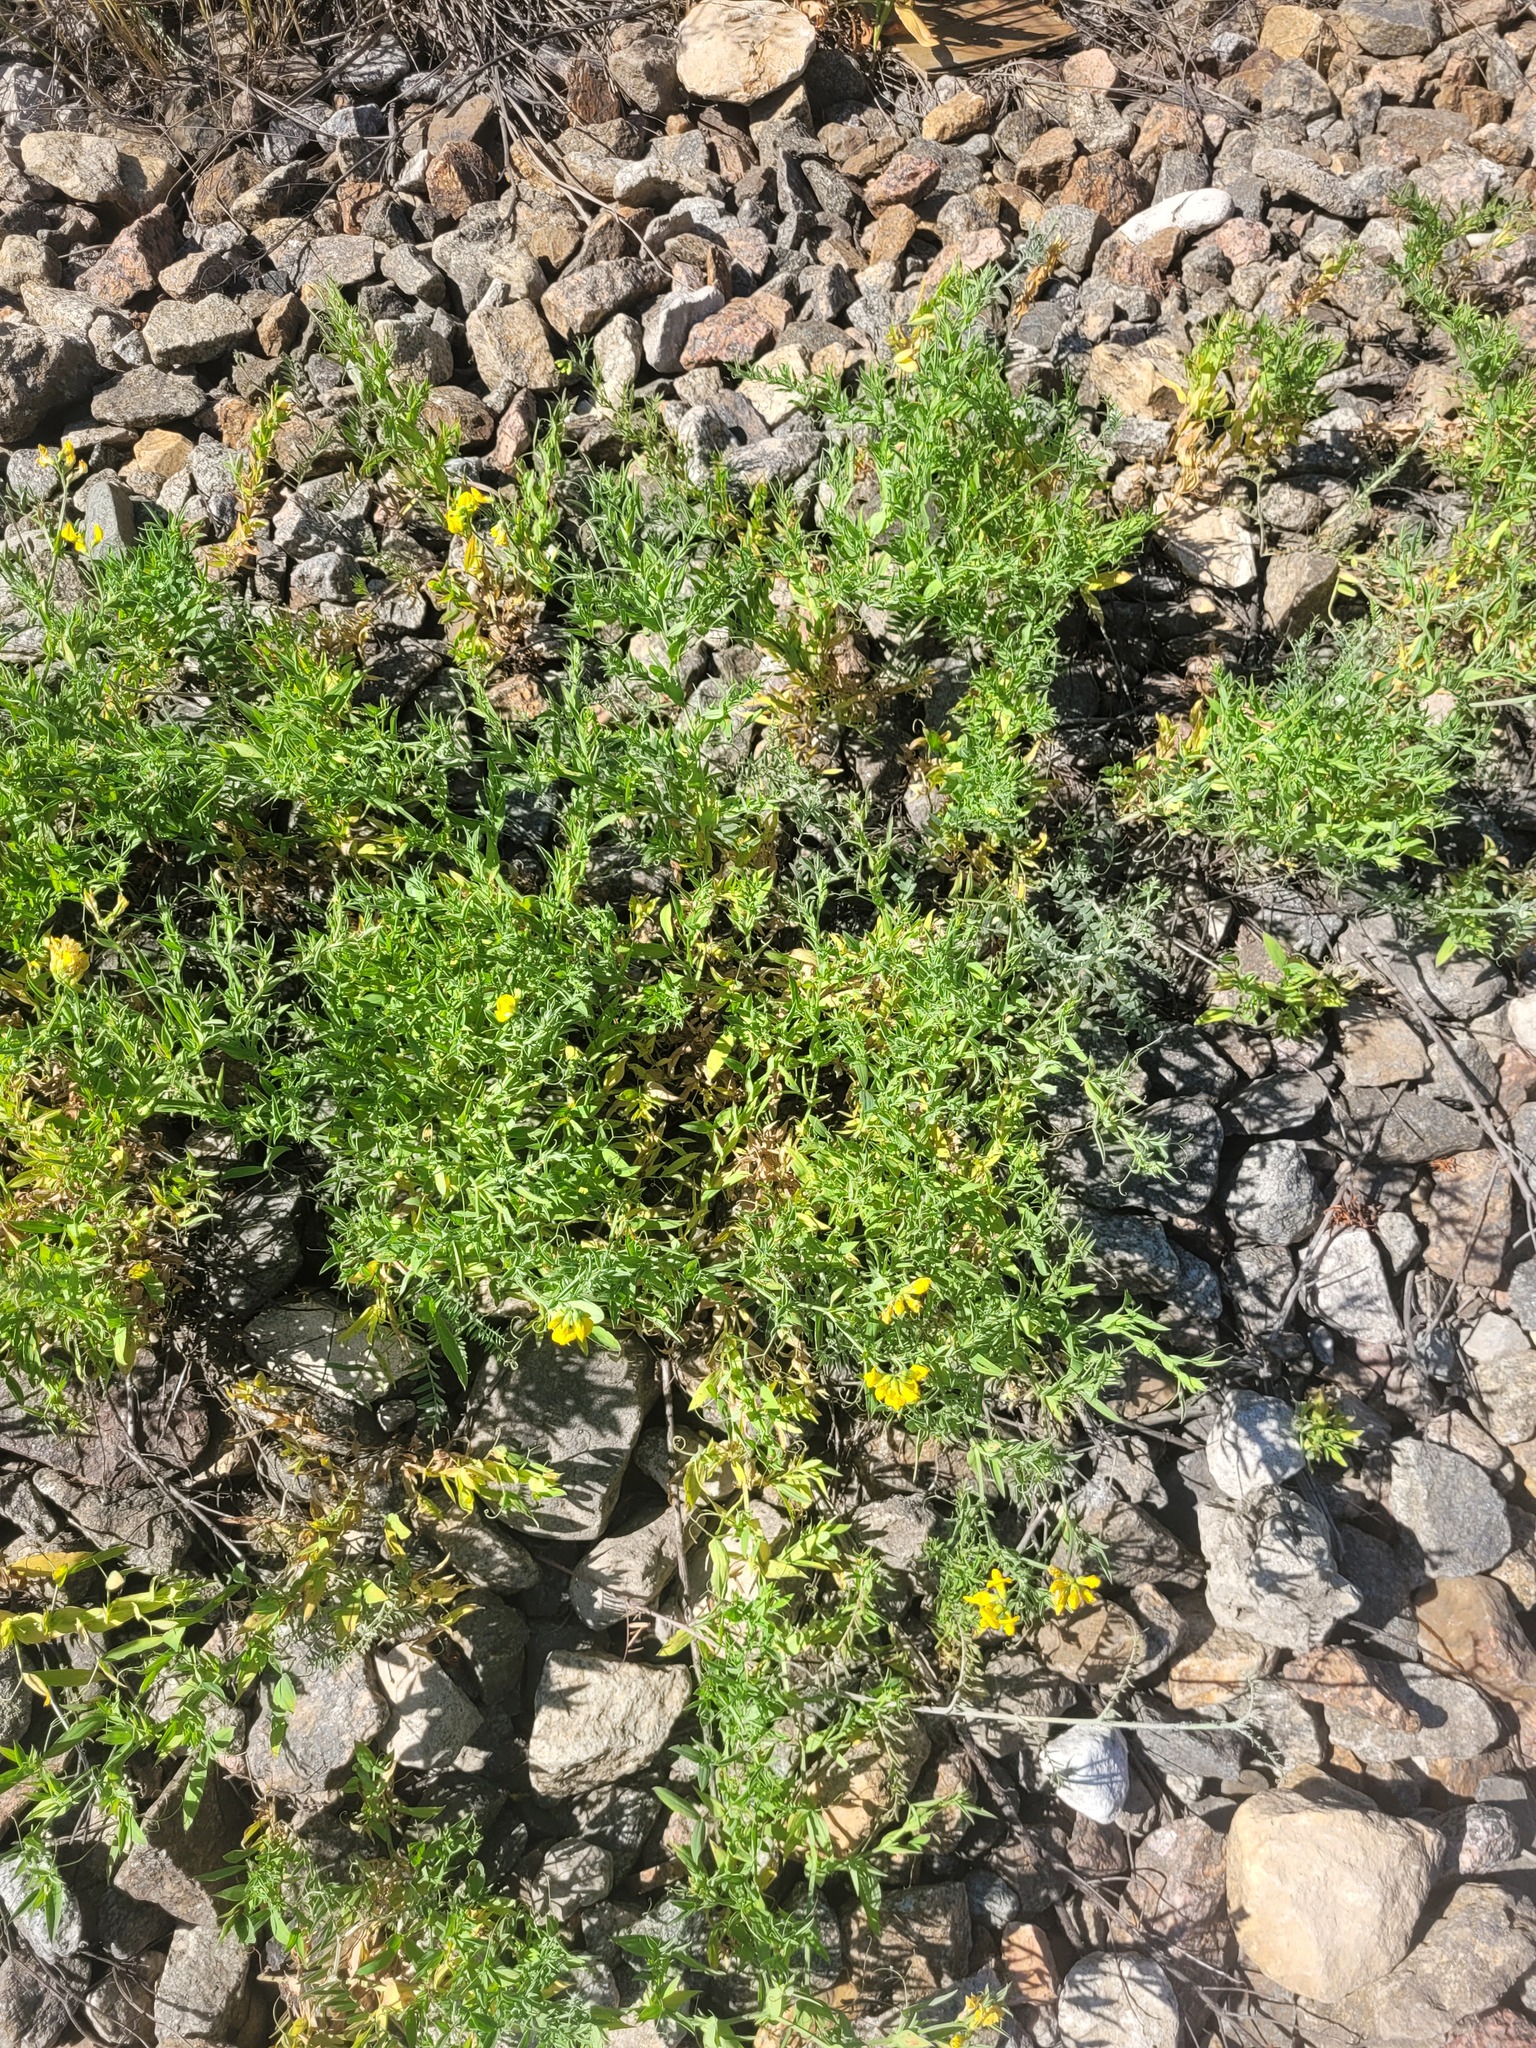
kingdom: Plantae
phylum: Tracheophyta
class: Magnoliopsida
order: Fabales
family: Fabaceae
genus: Lathyrus
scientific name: Lathyrus pratensis
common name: Meadow vetchling
